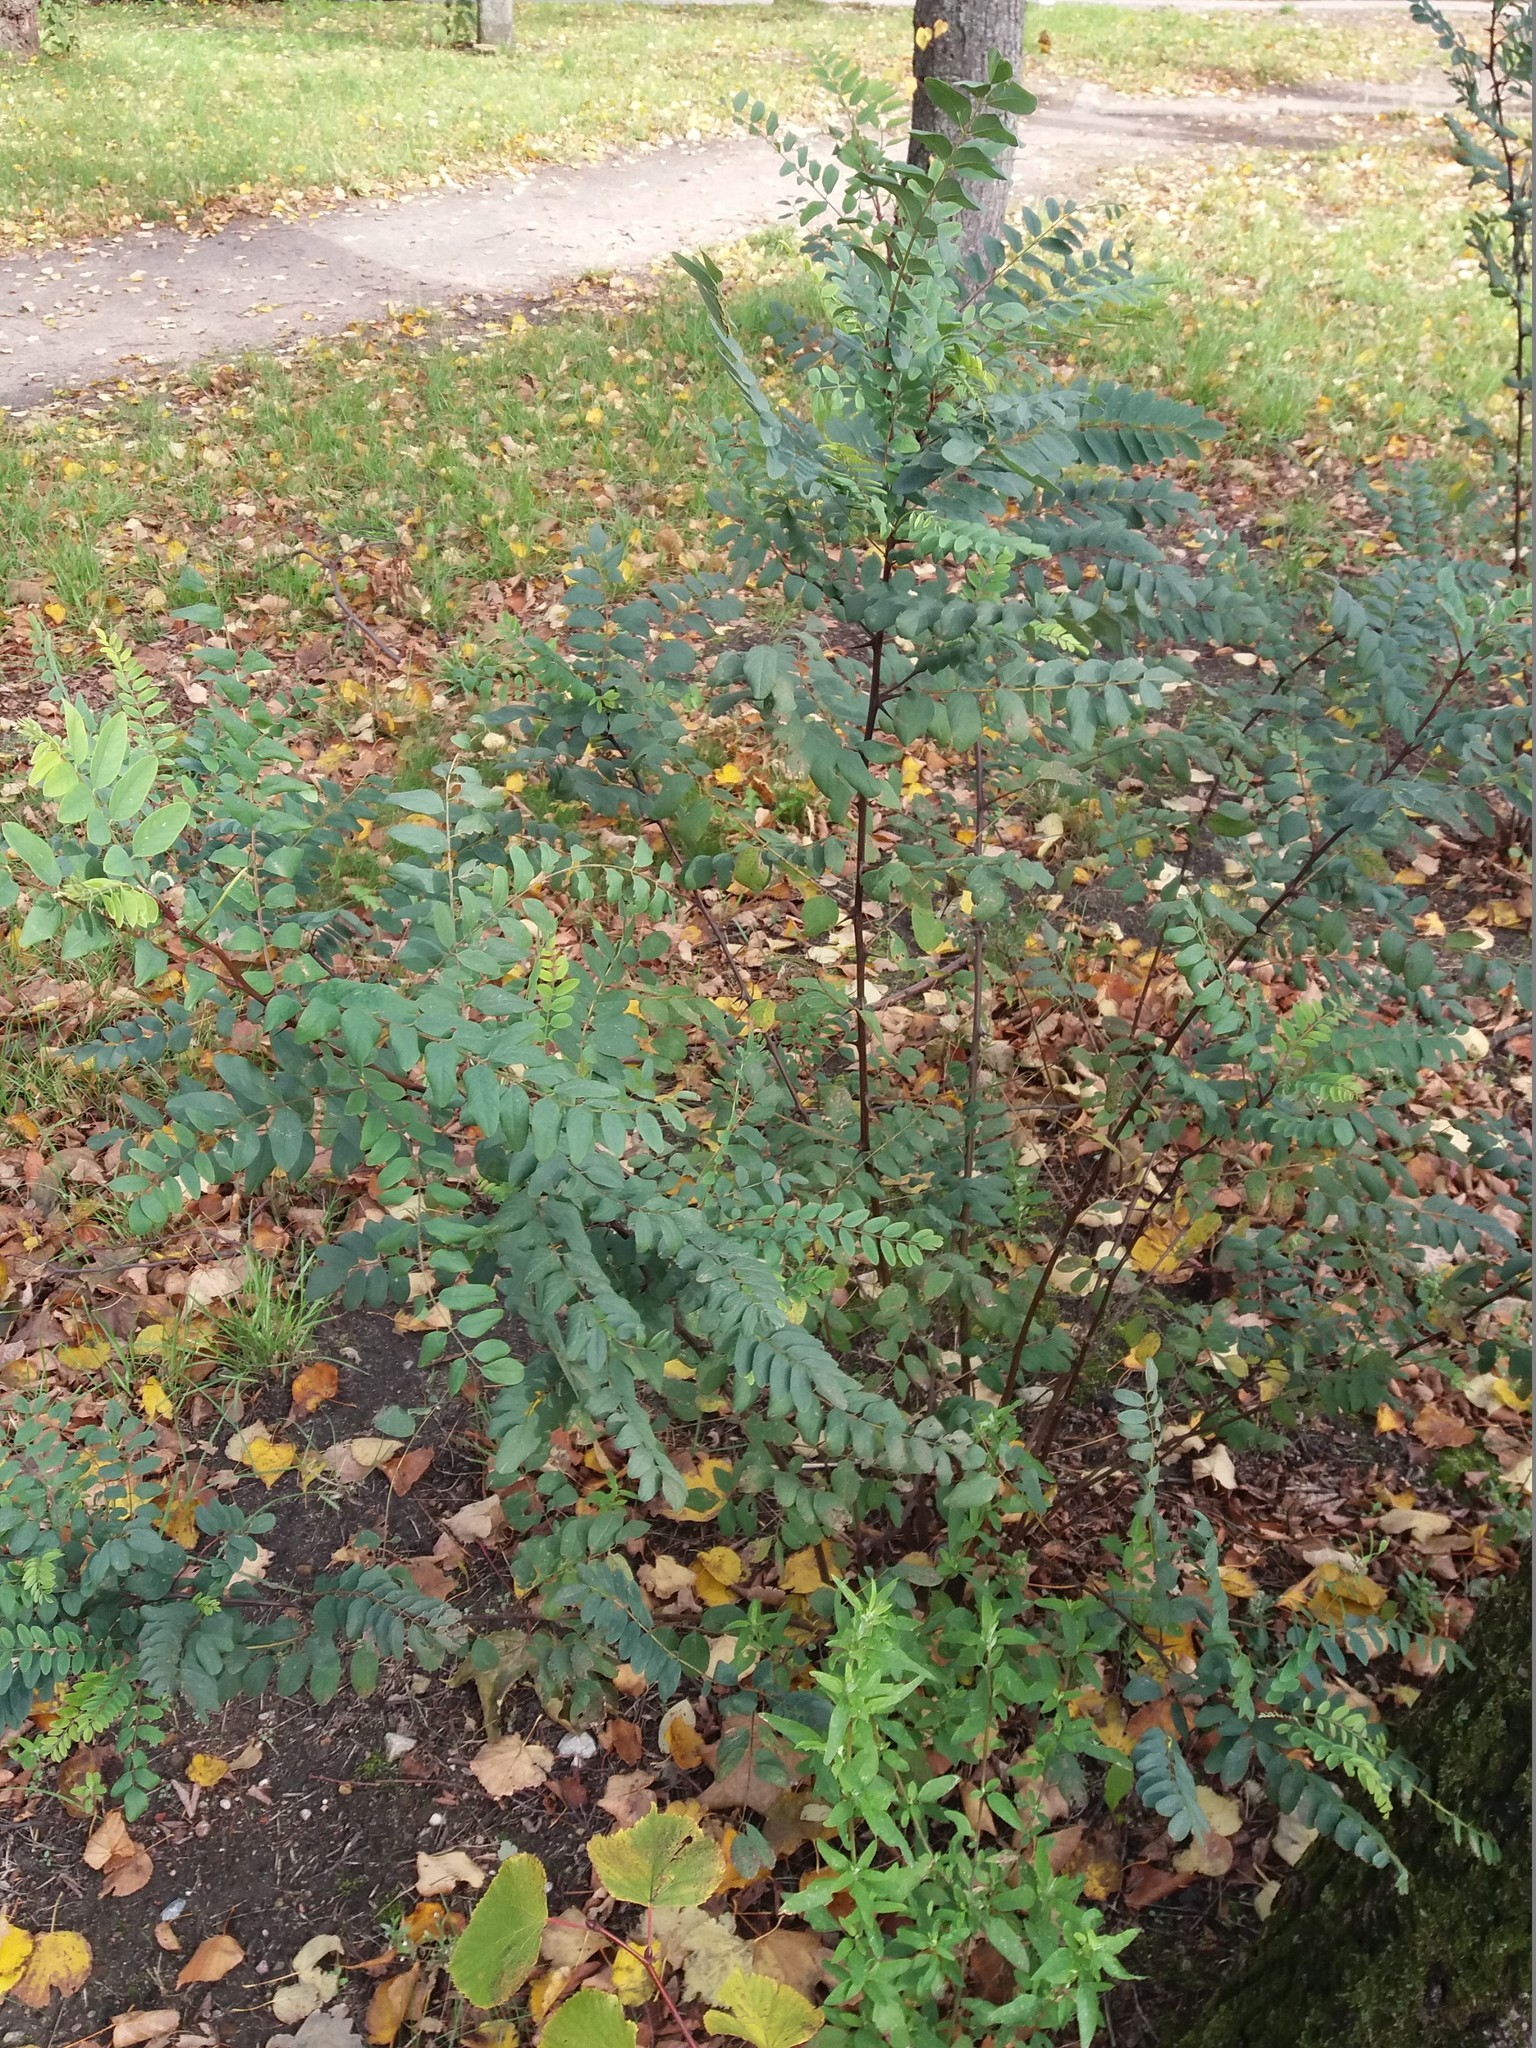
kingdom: Plantae
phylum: Tracheophyta
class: Magnoliopsida
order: Fabales
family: Fabaceae
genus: Robinia
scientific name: Robinia pseudoacacia
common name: Black locust
